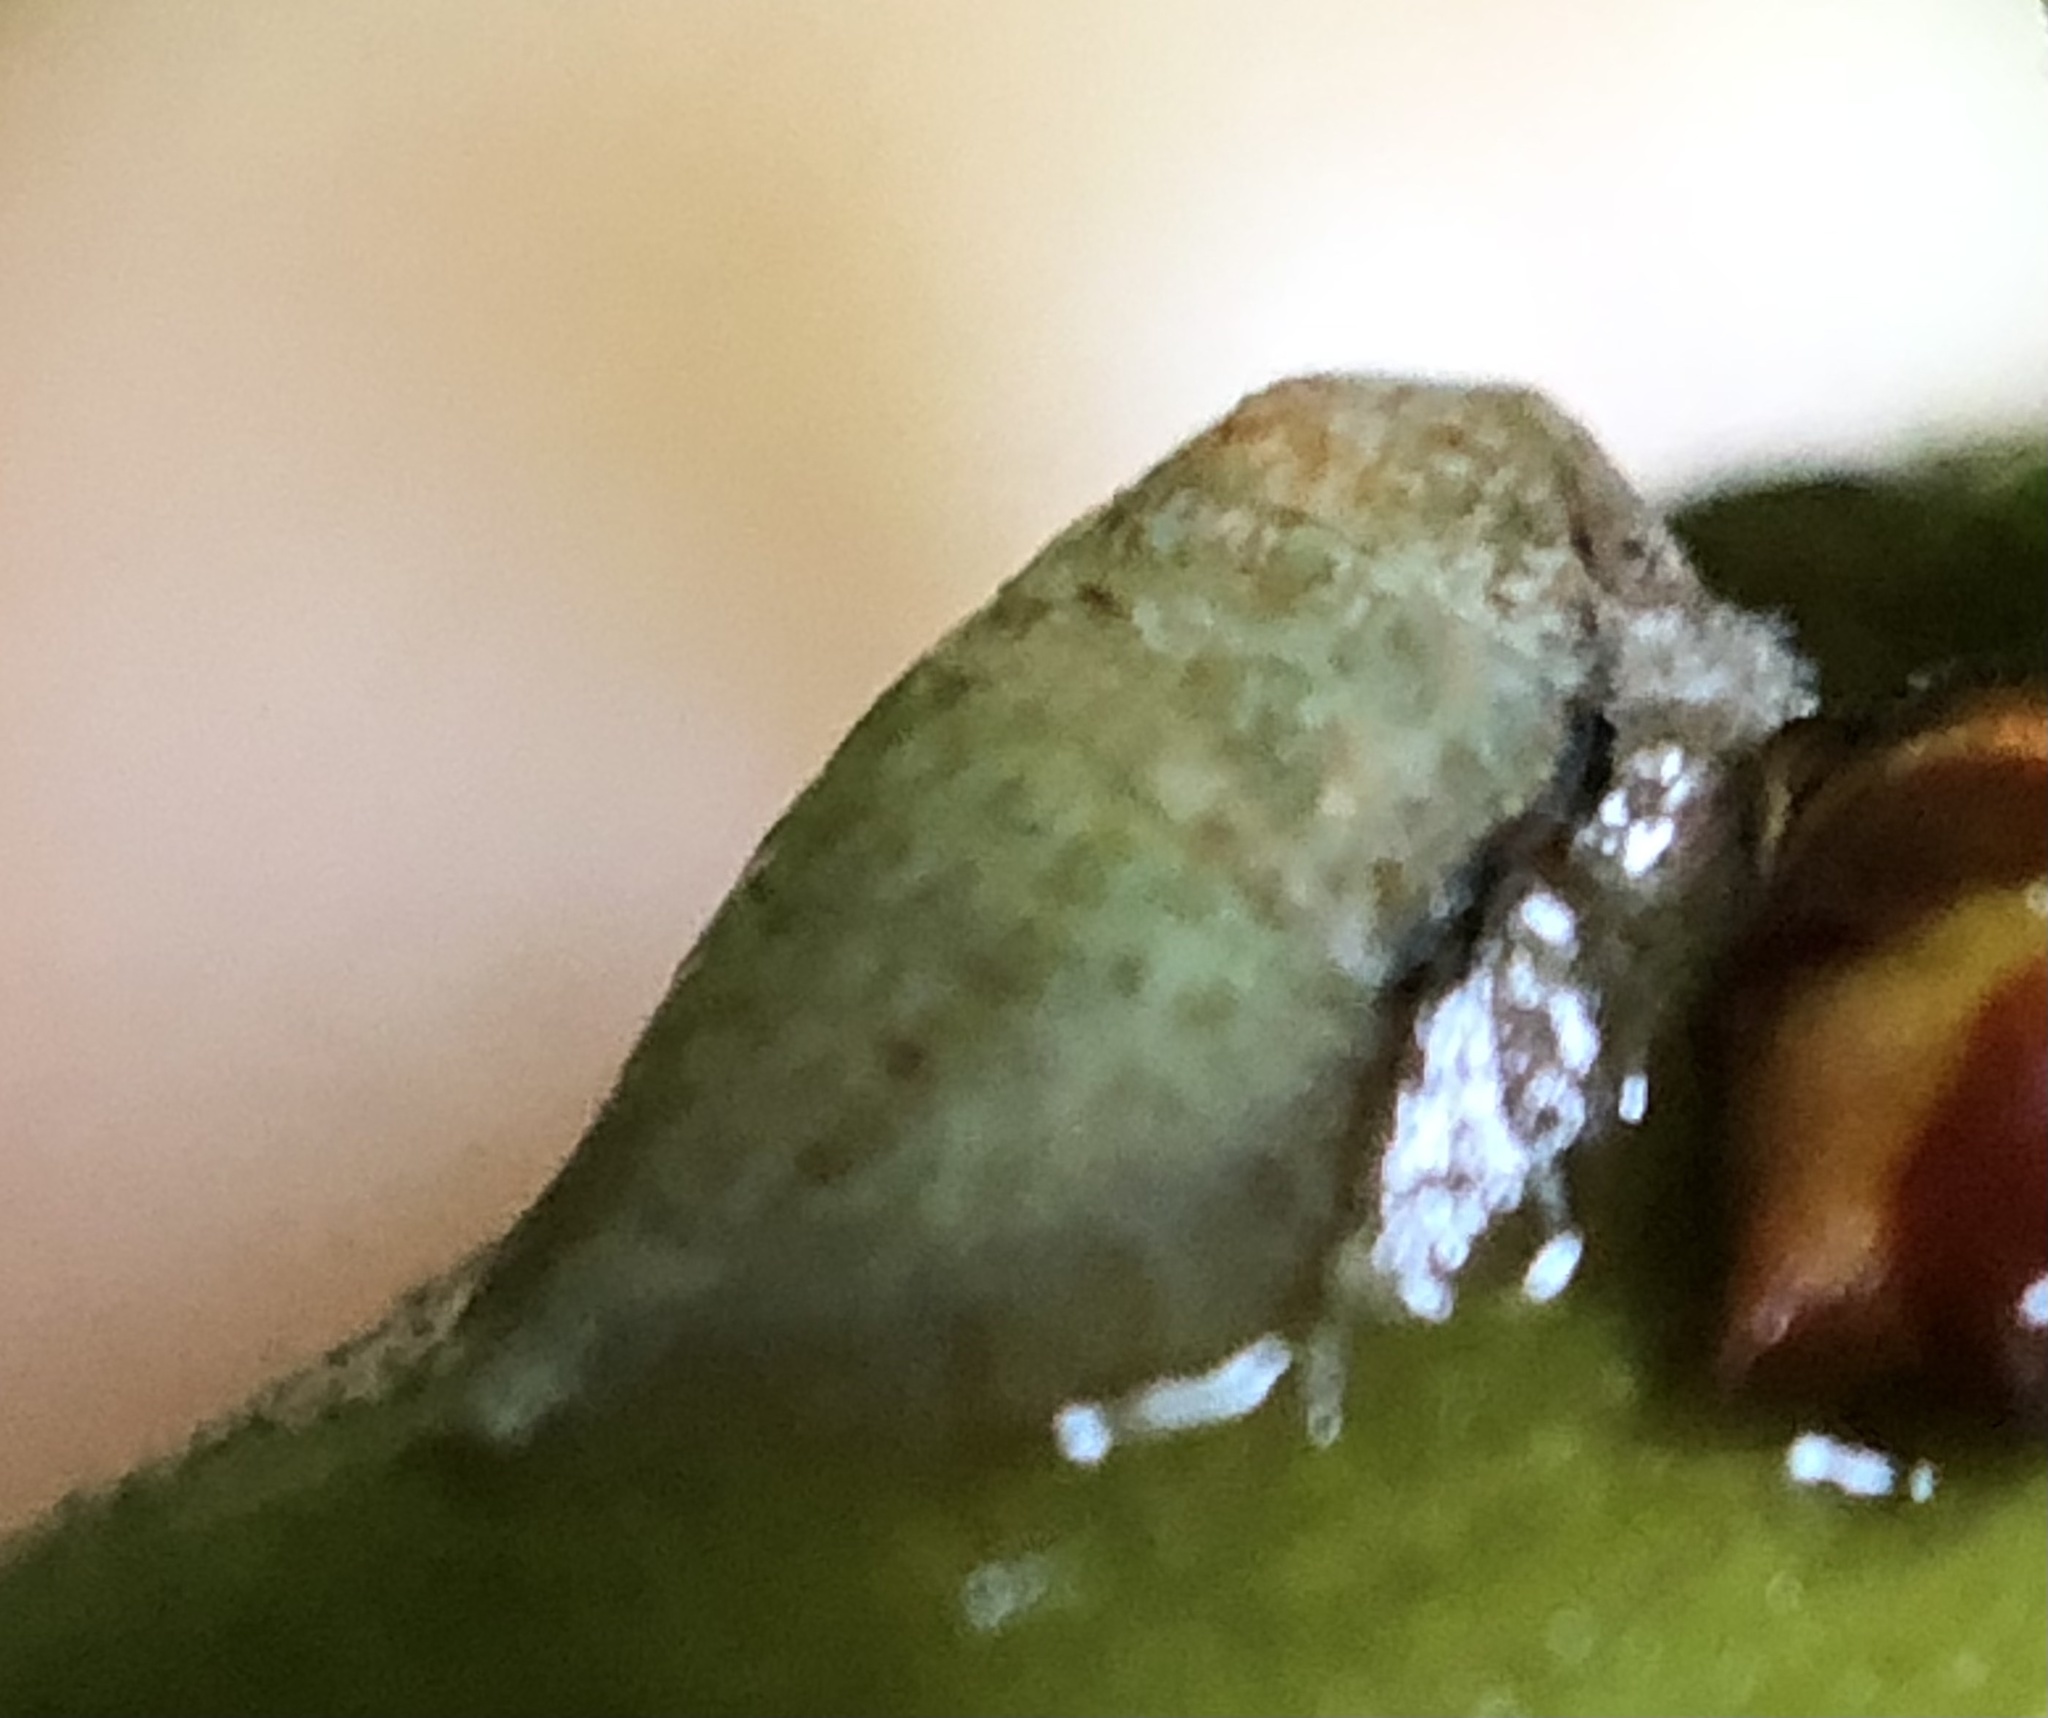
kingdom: Animalia
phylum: Arthropoda
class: Insecta
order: Hemiptera
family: Membracidae
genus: Hebetica
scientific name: Hebetica
